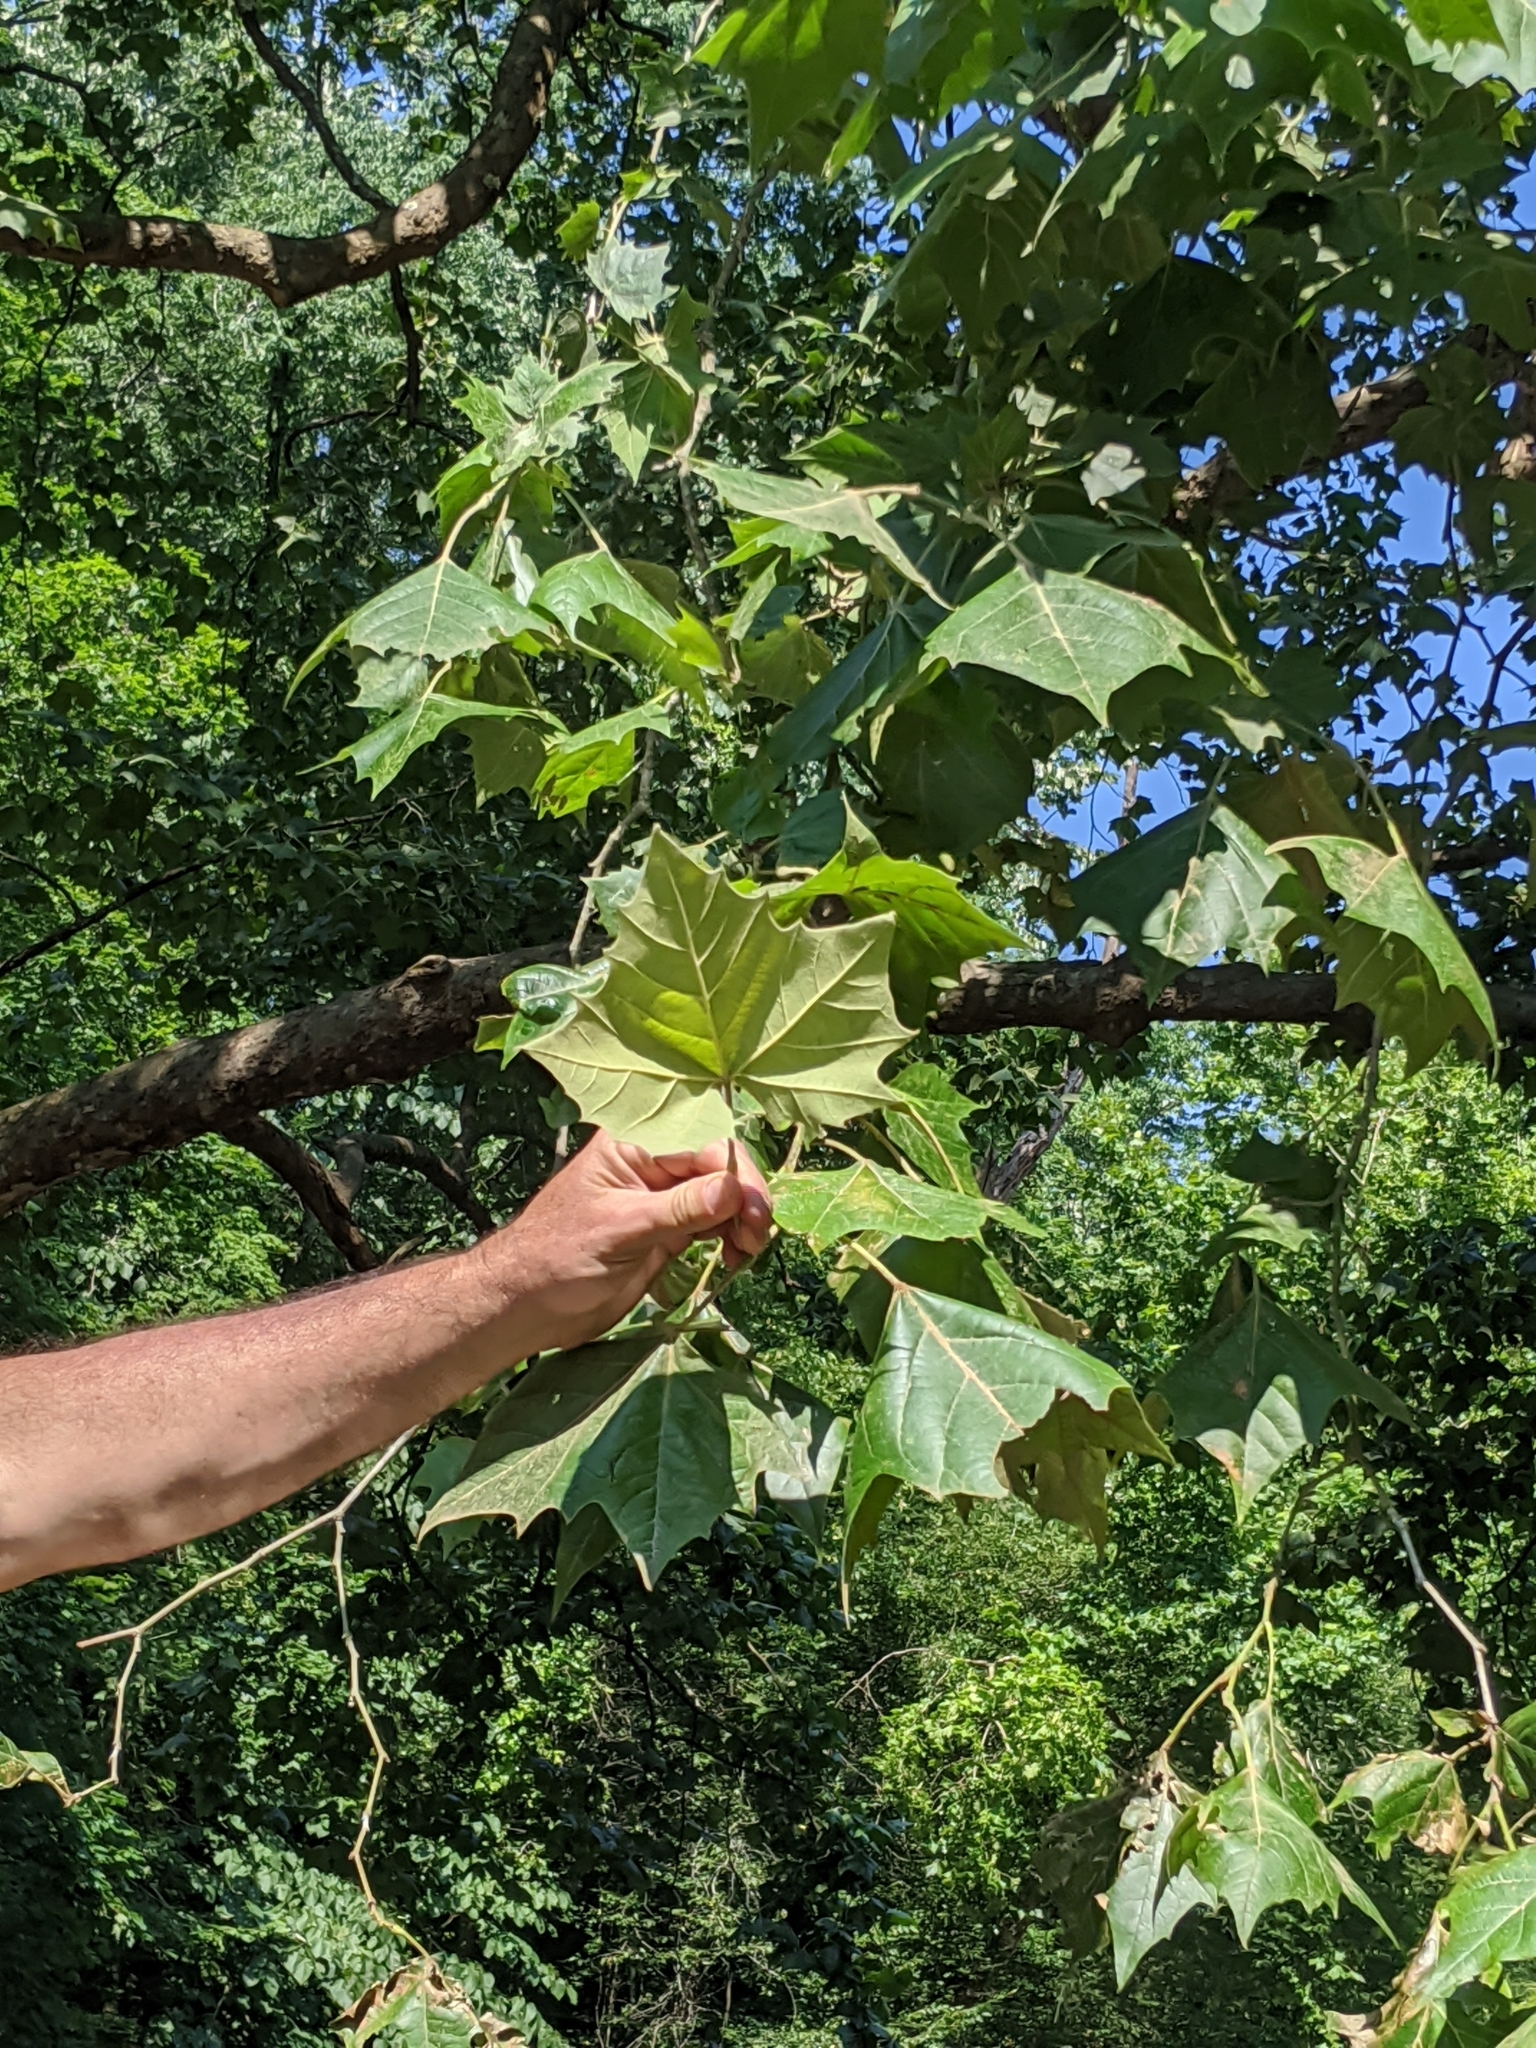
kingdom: Plantae
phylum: Tracheophyta
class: Magnoliopsida
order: Proteales
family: Platanaceae
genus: Platanus
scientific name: Platanus occidentalis
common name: American sycamore
